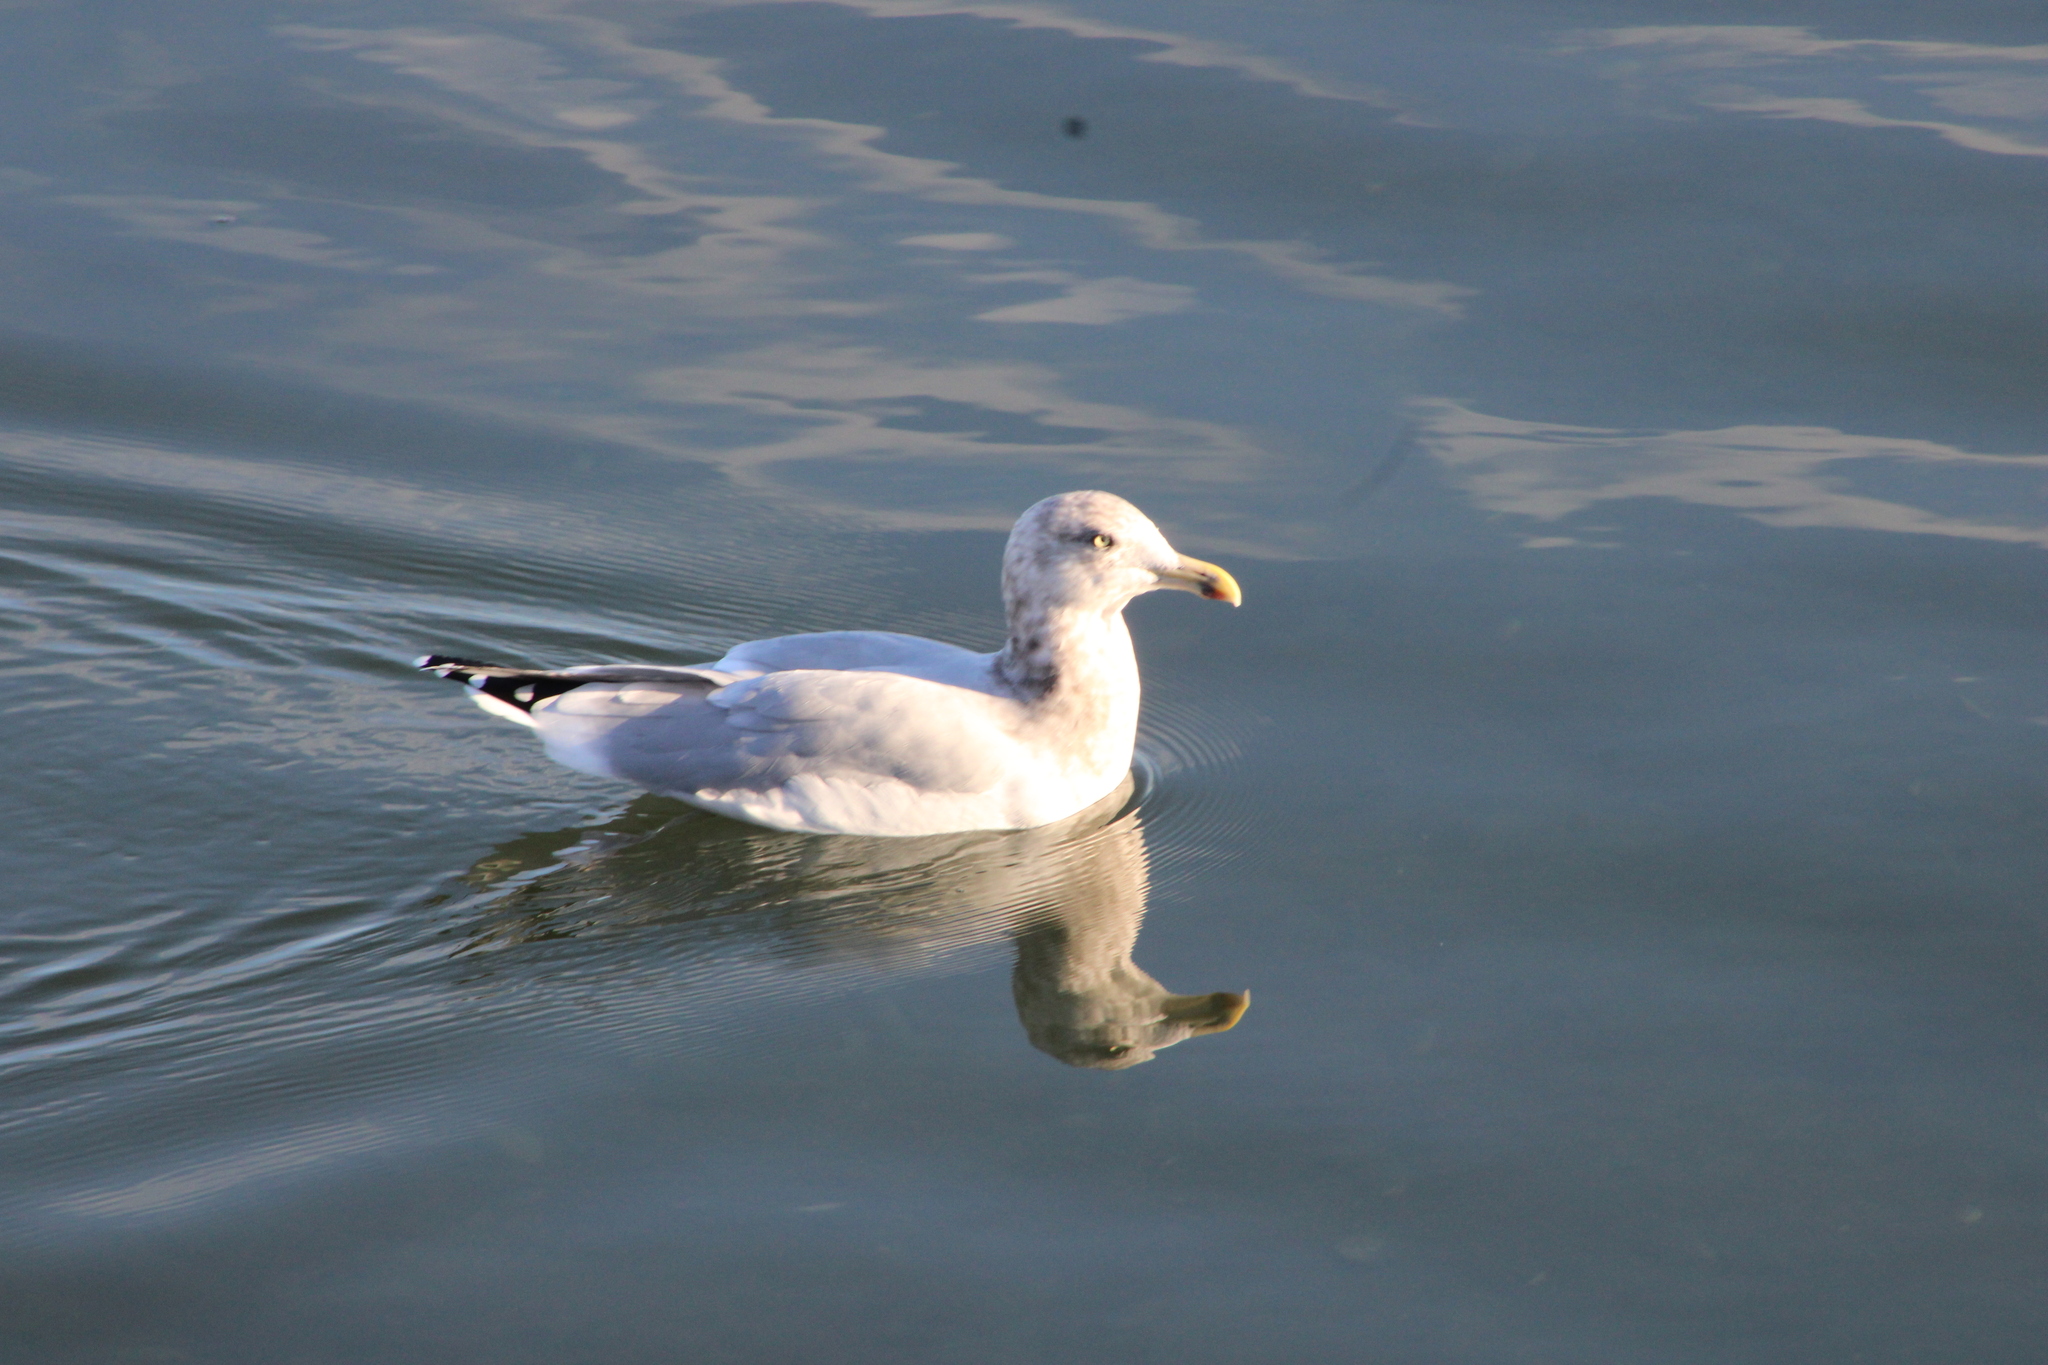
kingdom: Animalia
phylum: Chordata
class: Aves
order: Charadriiformes
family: Laridae
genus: Larus
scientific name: Larus argentatus
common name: Herring gull
